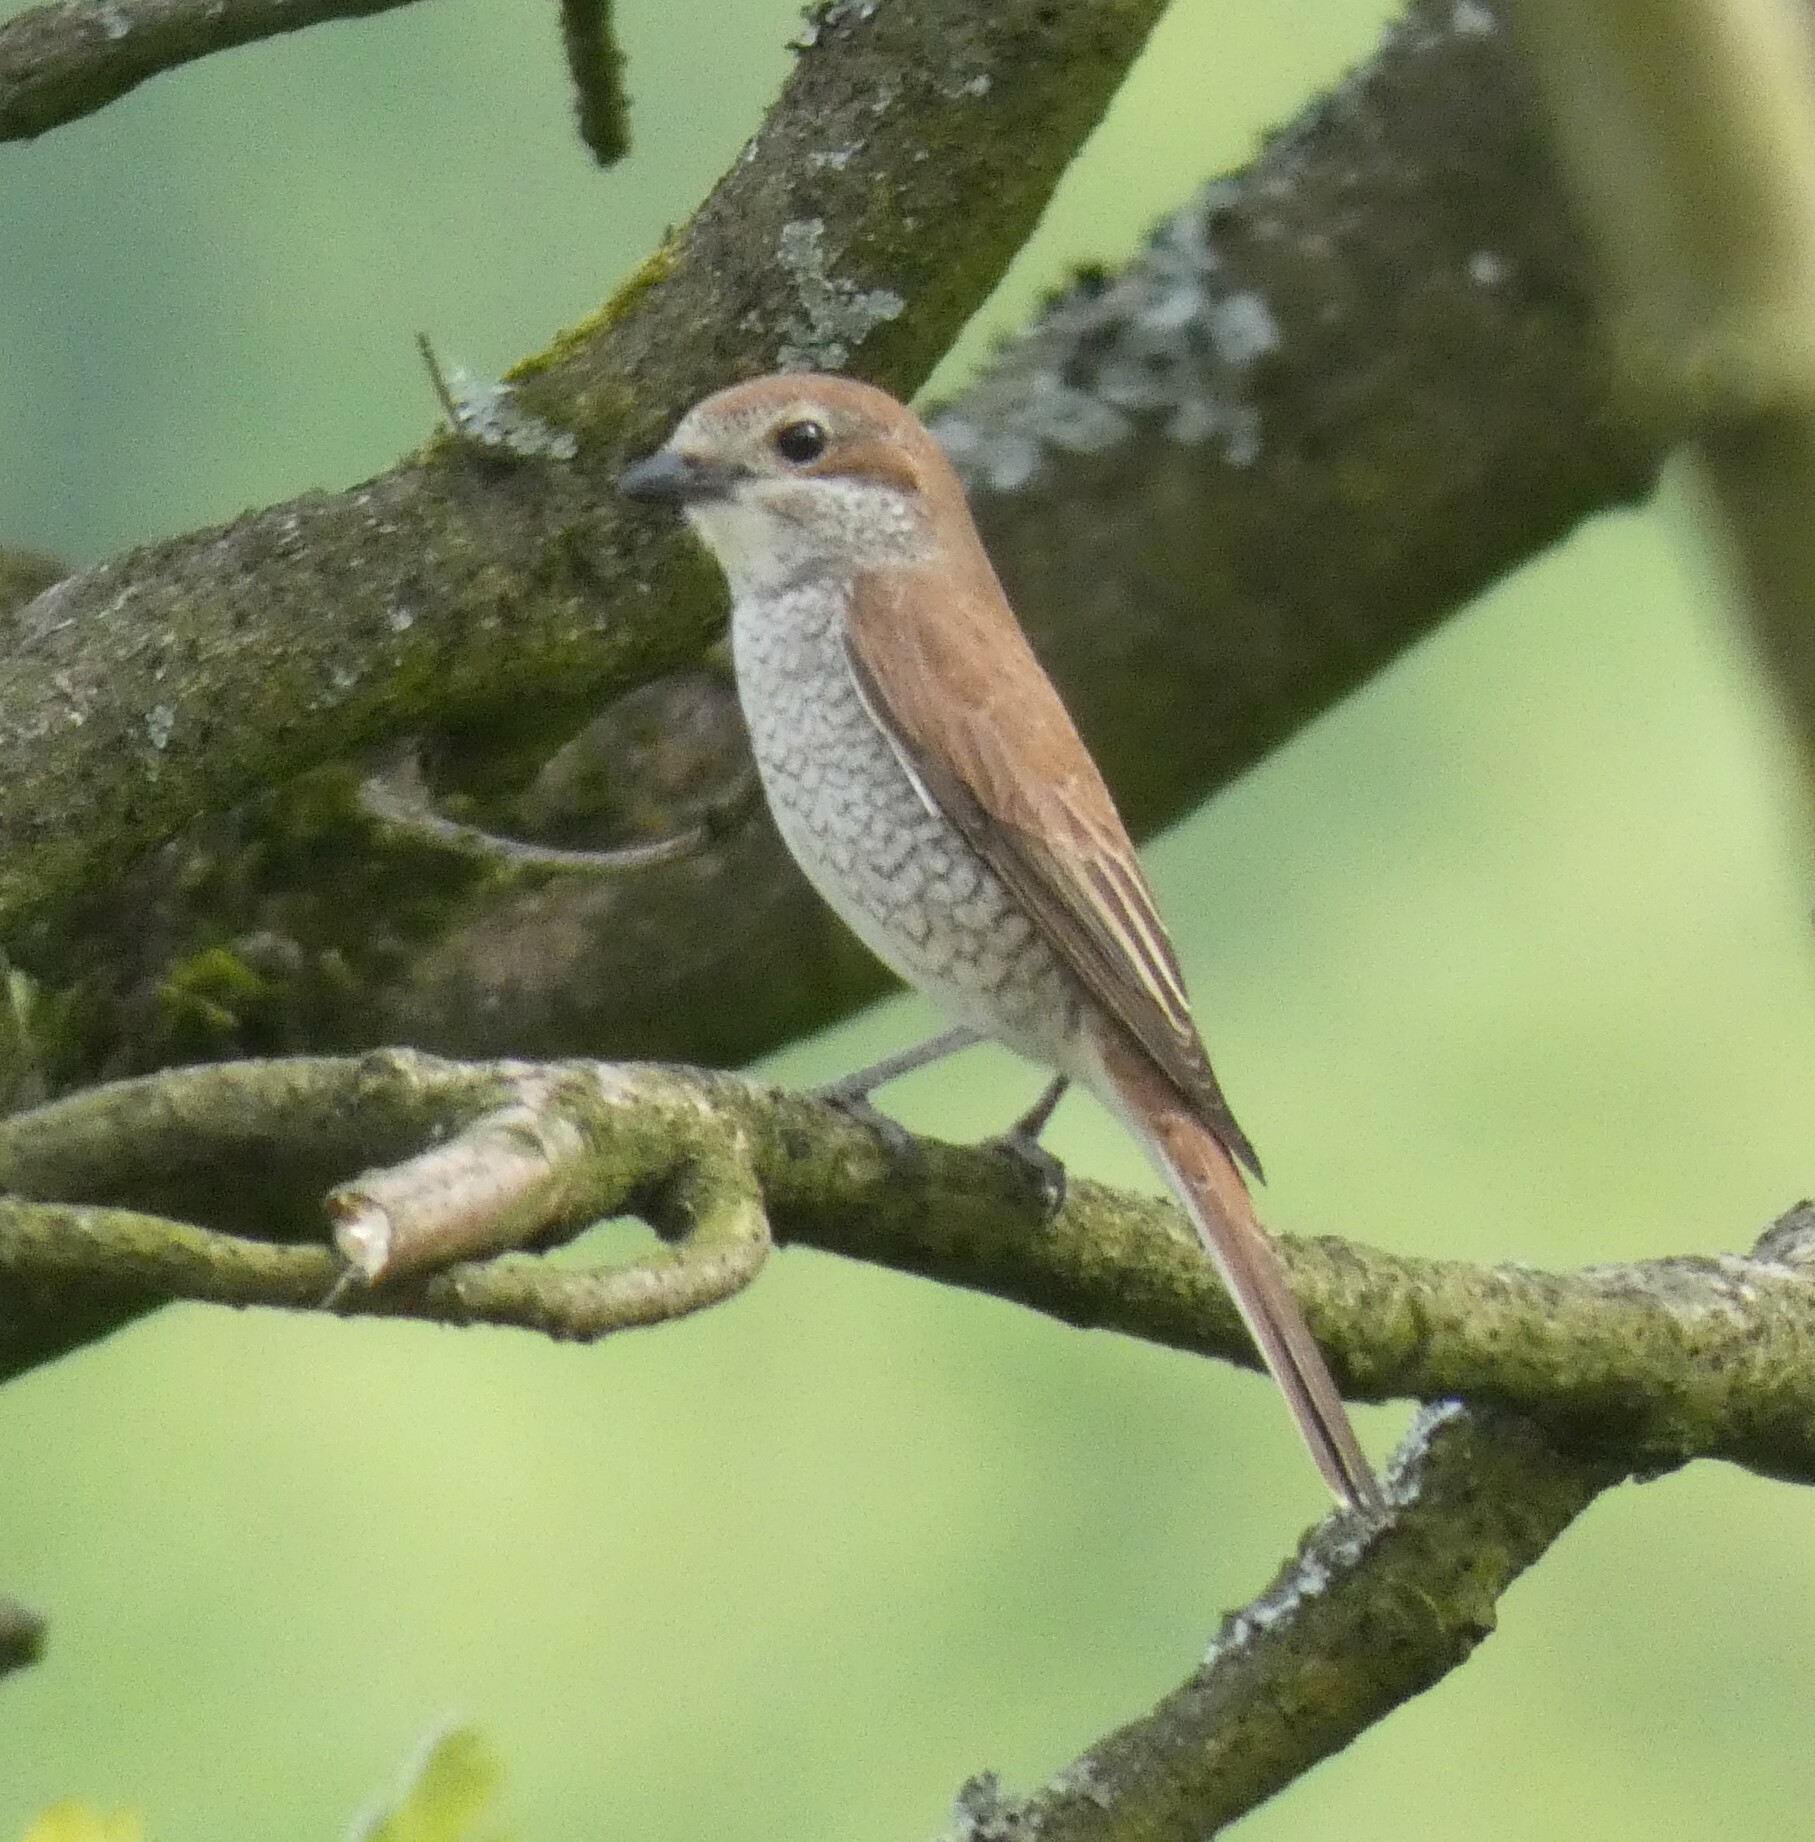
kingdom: Animalia
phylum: Chordata
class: Aves
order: Passeriformes
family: Laniidae
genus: Lanius
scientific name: Lanius collurio
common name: Red-backed shrike
